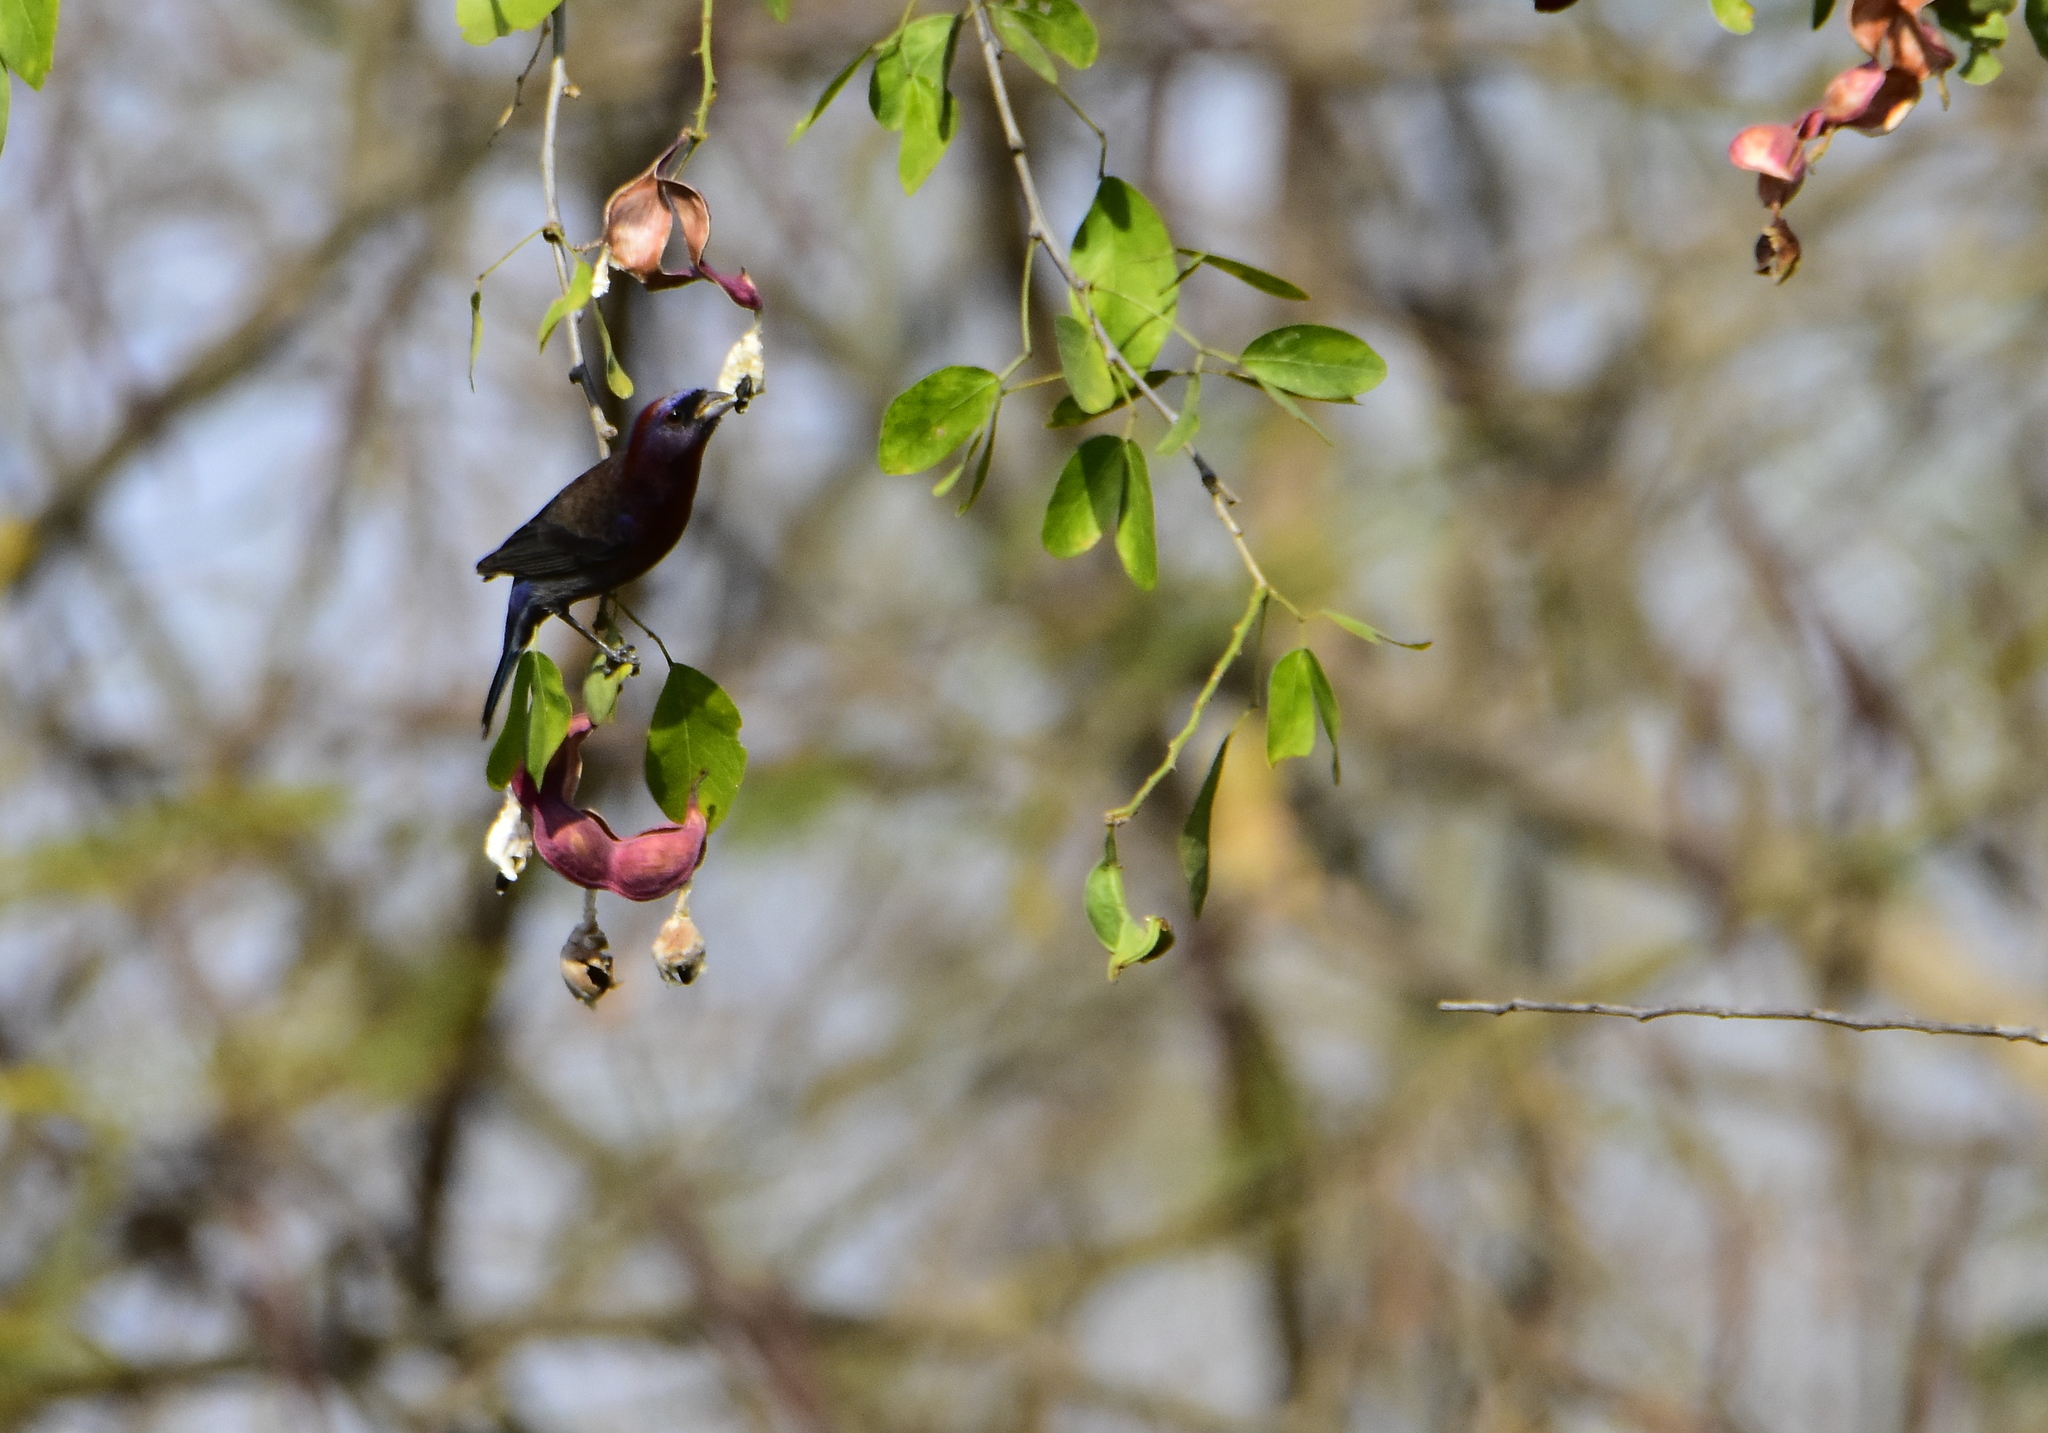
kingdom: Animalia
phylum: Chordata
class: Aves
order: Passeriformes
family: Cardinalidae
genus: Passerina
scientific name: Passerina versicolor
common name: Varied bunting
